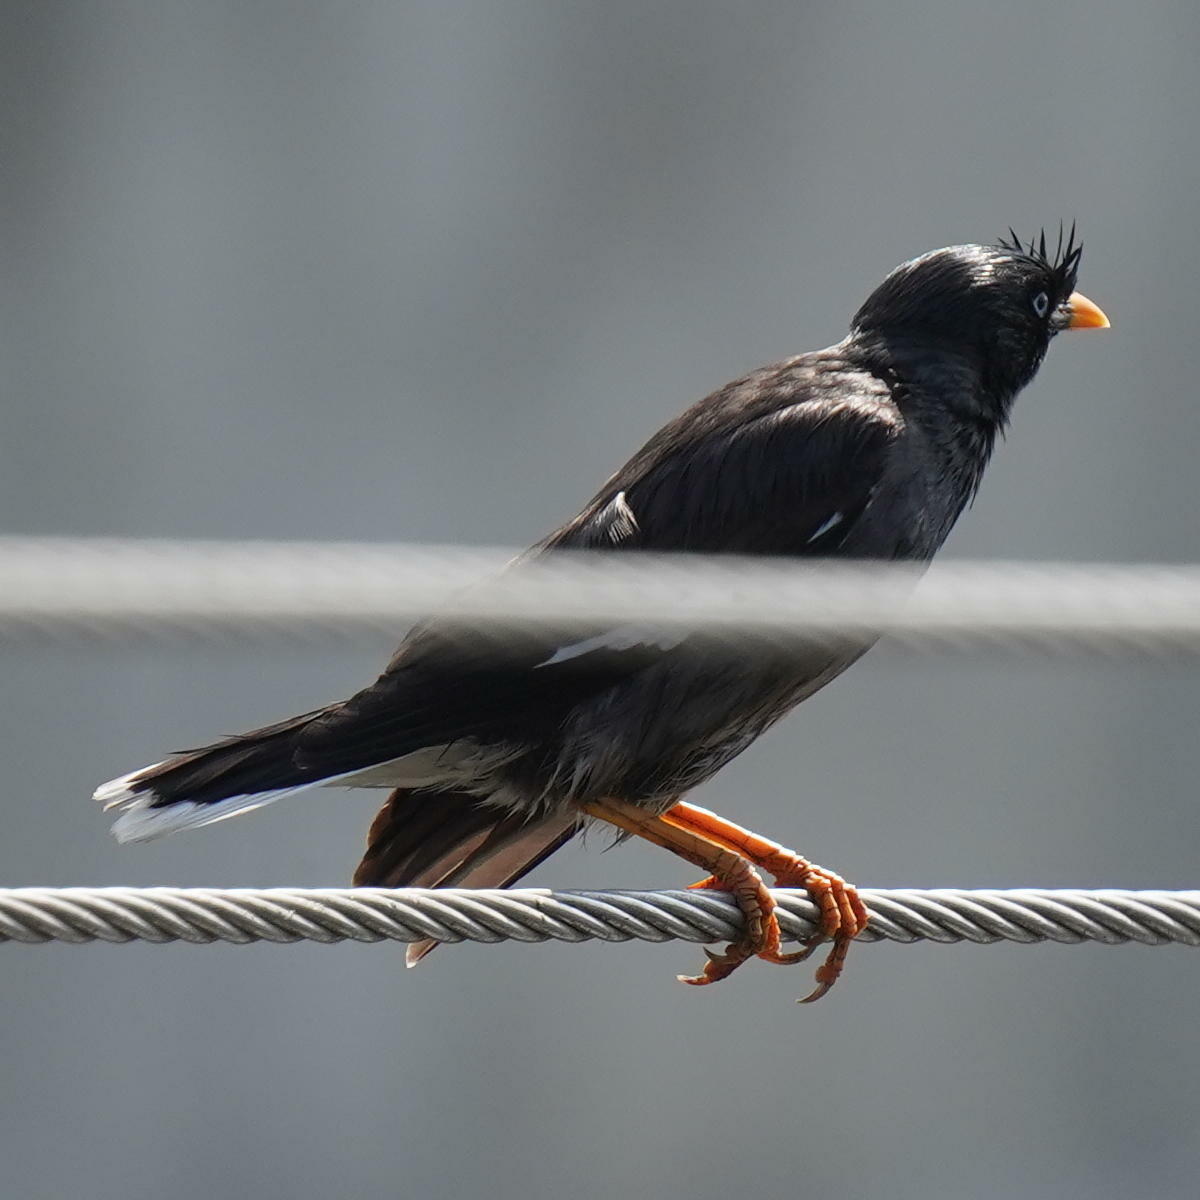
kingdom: Animalia
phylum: Chordata
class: Aves
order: Passeriformes
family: Sturnidae
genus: Acridotheres
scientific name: Acridotheres fuscus
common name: Jungle myna
